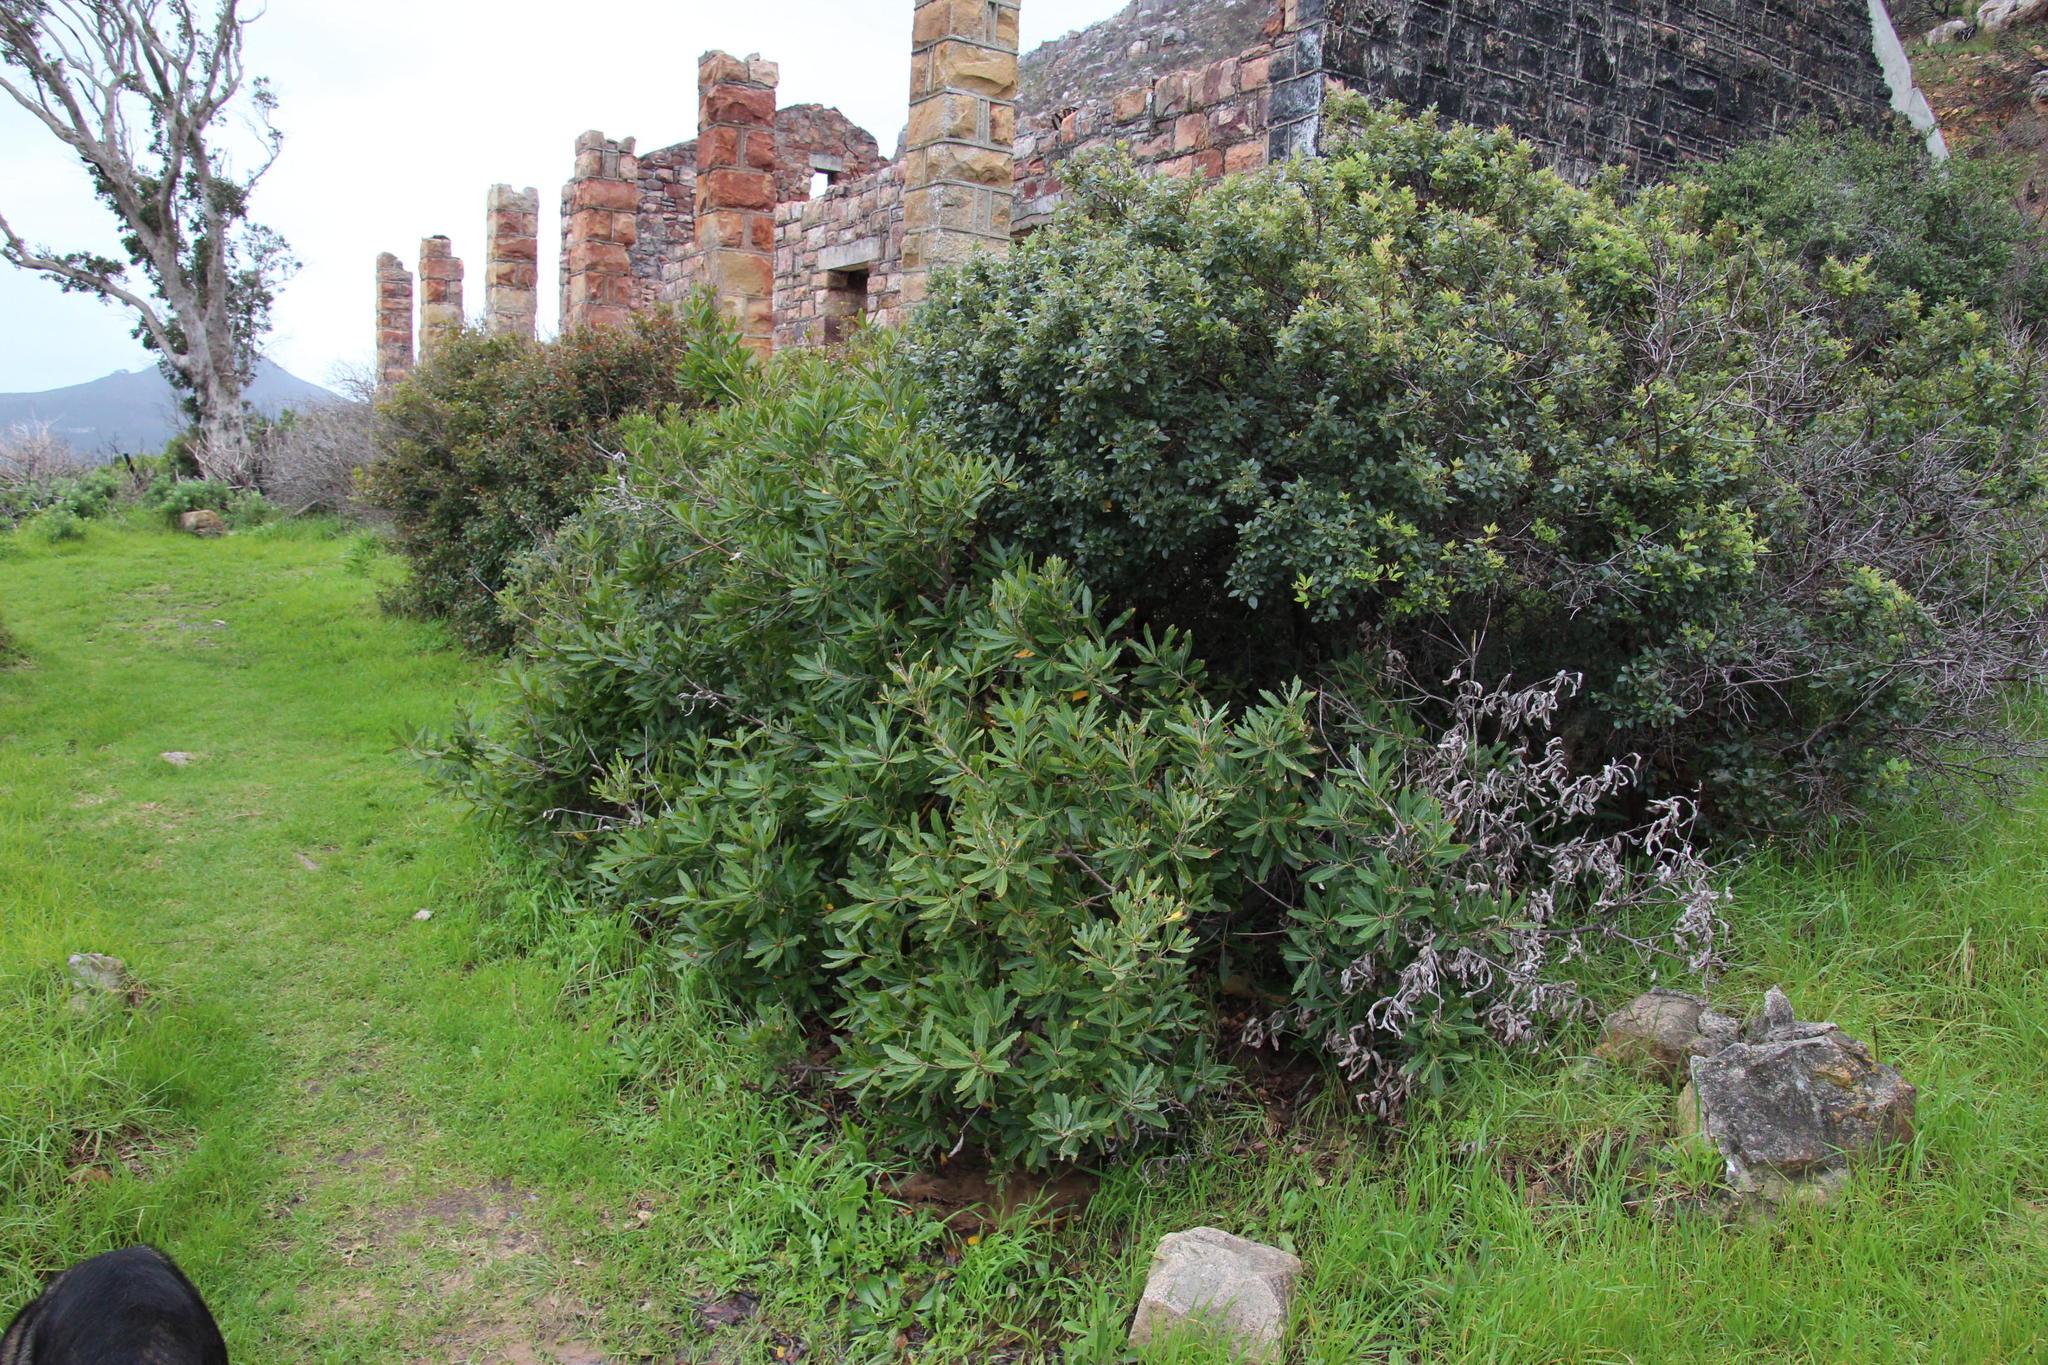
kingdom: Plantae
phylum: Tracheophyta
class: Magnoliopsida
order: Proteales
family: Proteaceae
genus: Brabejum
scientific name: Brabejum stellatifolium
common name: Wild almond
